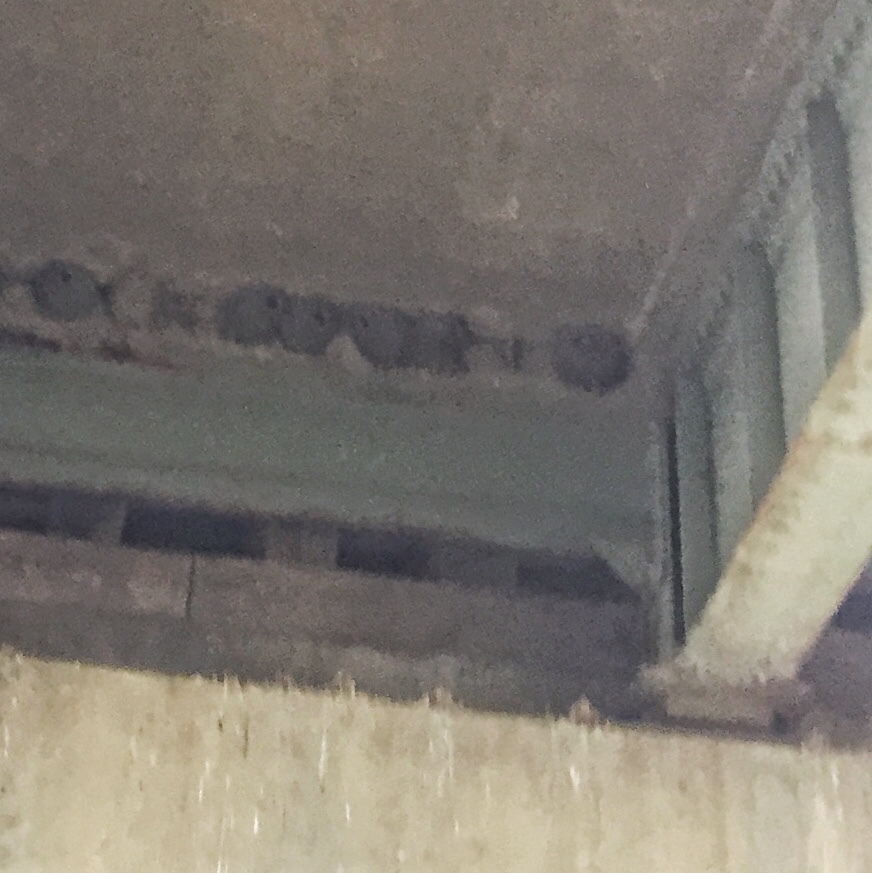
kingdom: Animalia
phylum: Chordata
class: Aves
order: Passeriformes
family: Hirundinidae
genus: Petrochelidon
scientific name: Petrochelidon pyrrhonota
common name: American cliff swallow
